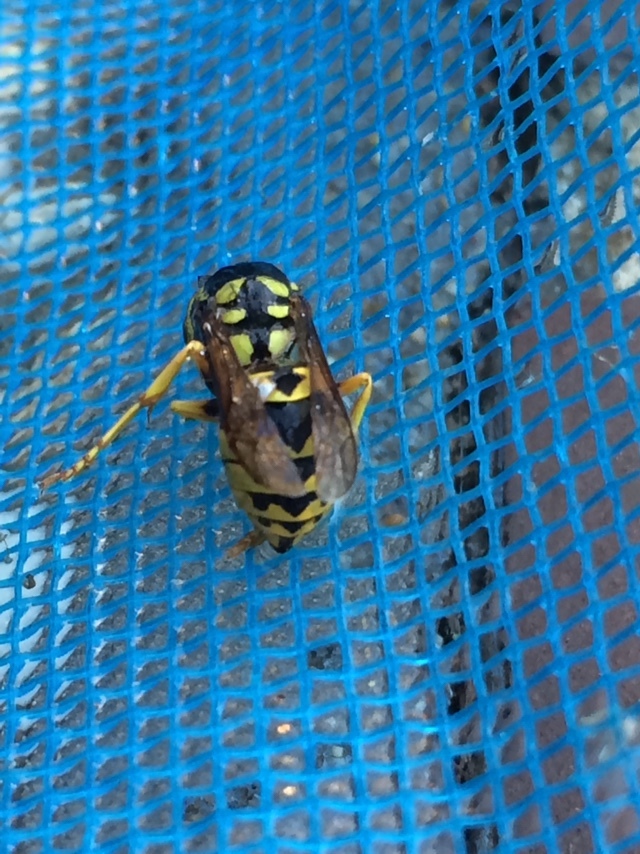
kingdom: Animalia
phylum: Arthropoda
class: Insecta
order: Hymenoptera
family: Vespidae
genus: Vespula
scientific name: Vespula pensylvanica
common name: Western yellowjacket
